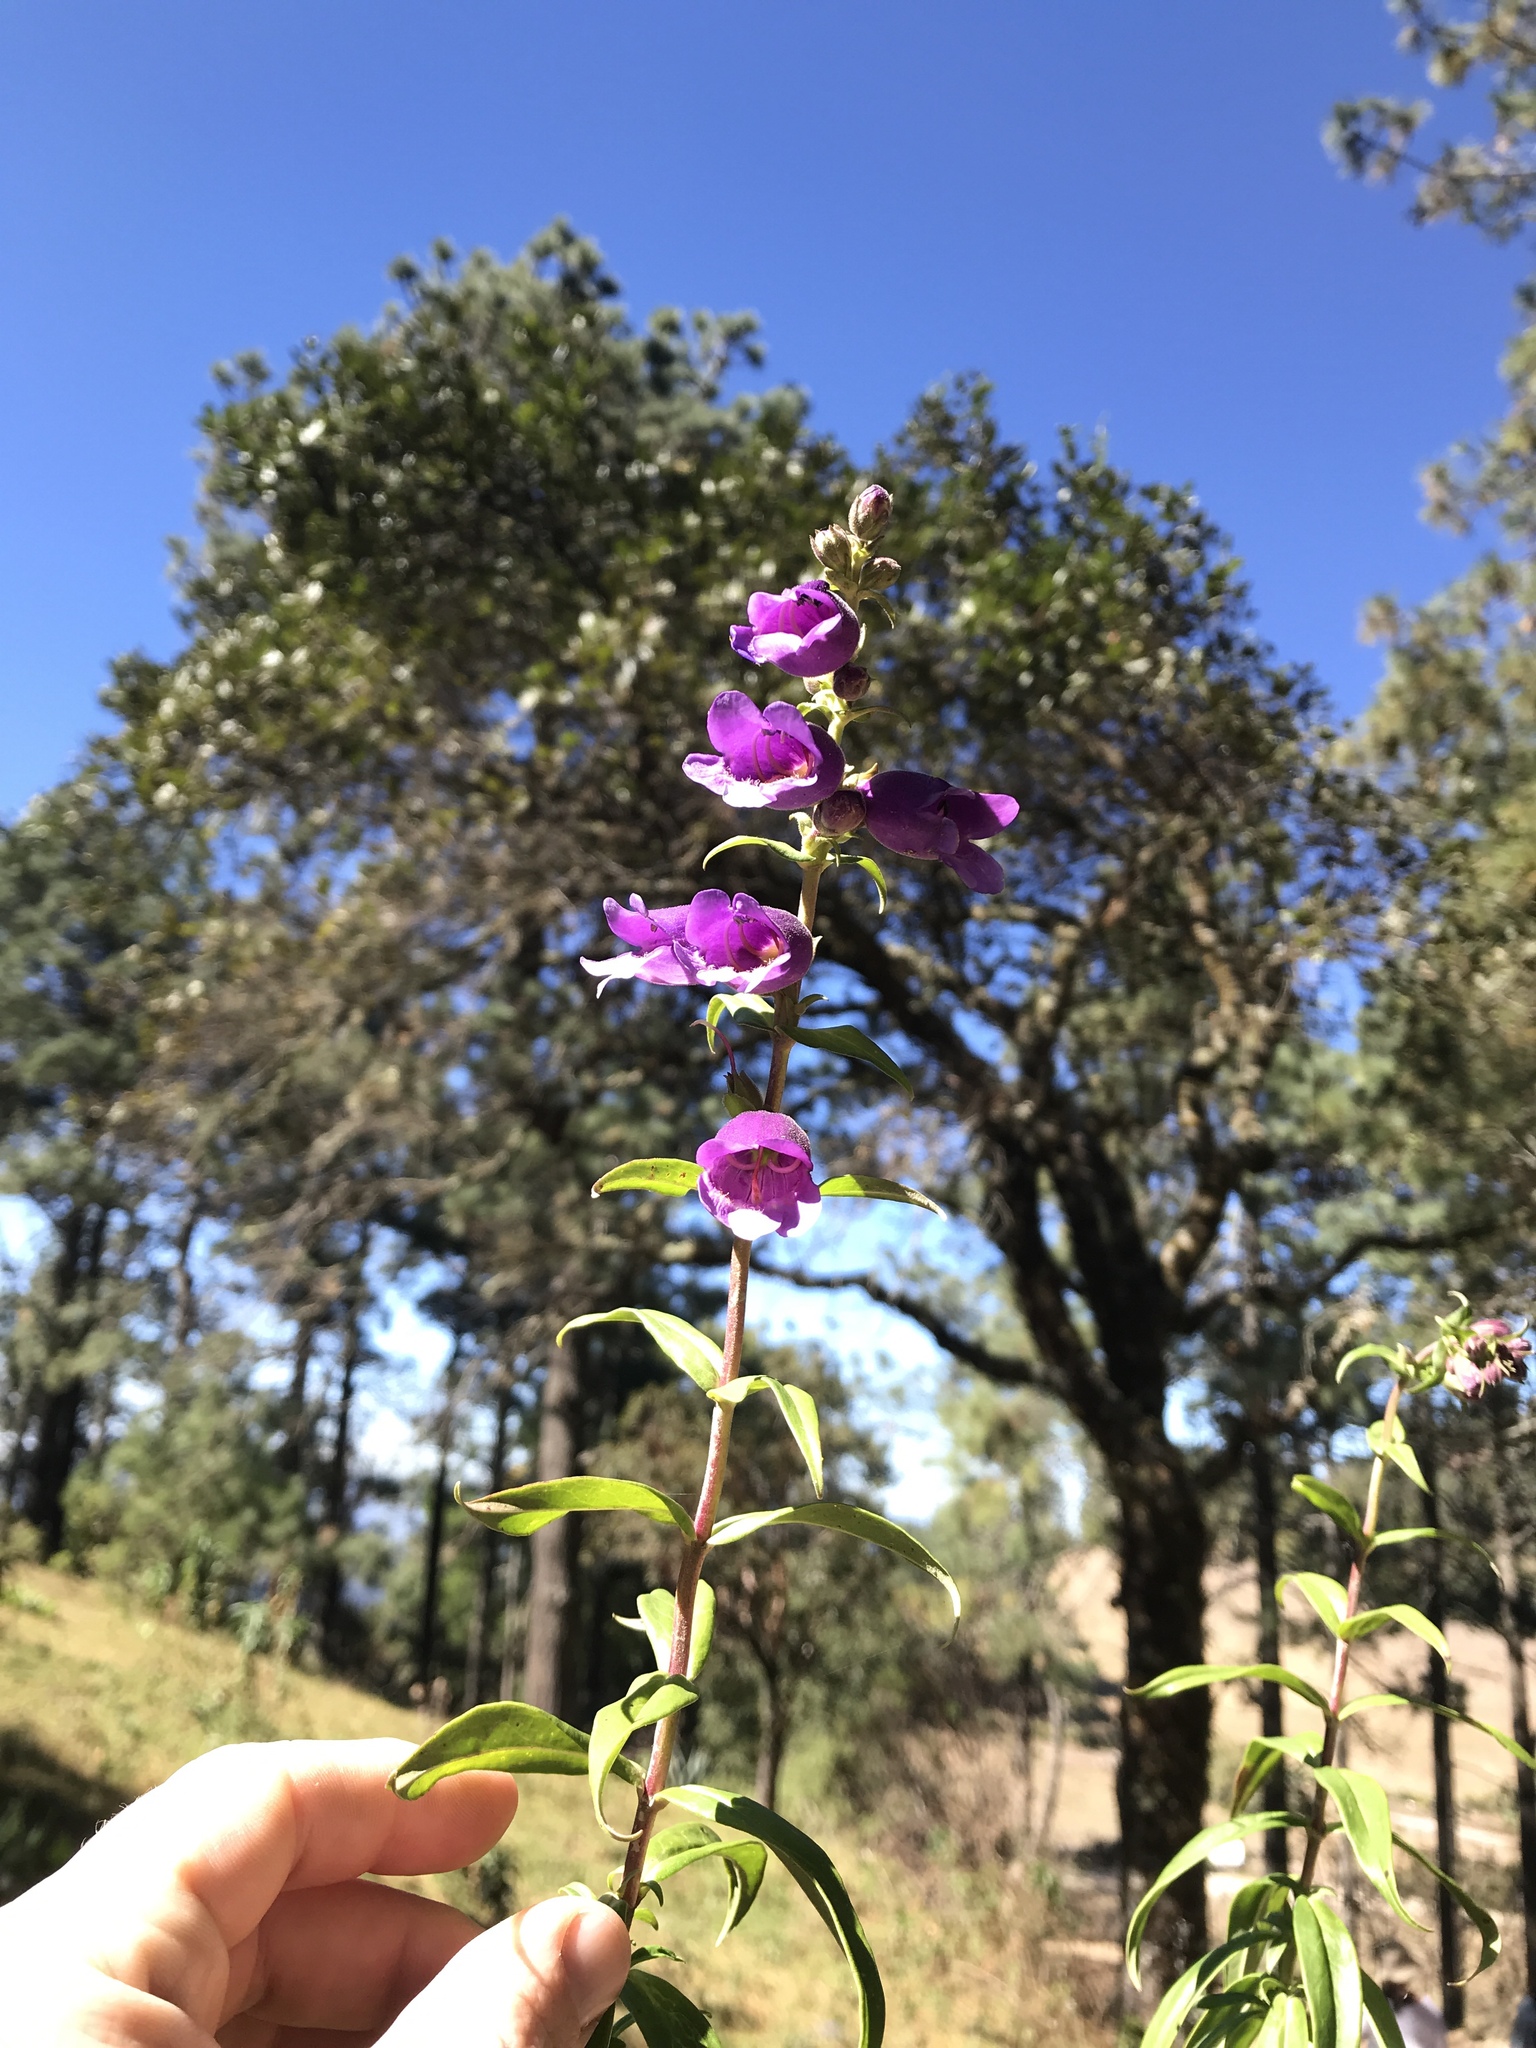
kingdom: Plantae
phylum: Tracheophyta
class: Magnoliopsida
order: Lamiales
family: Plantaginaceae
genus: Penstemon
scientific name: Penstemon gentianoides
